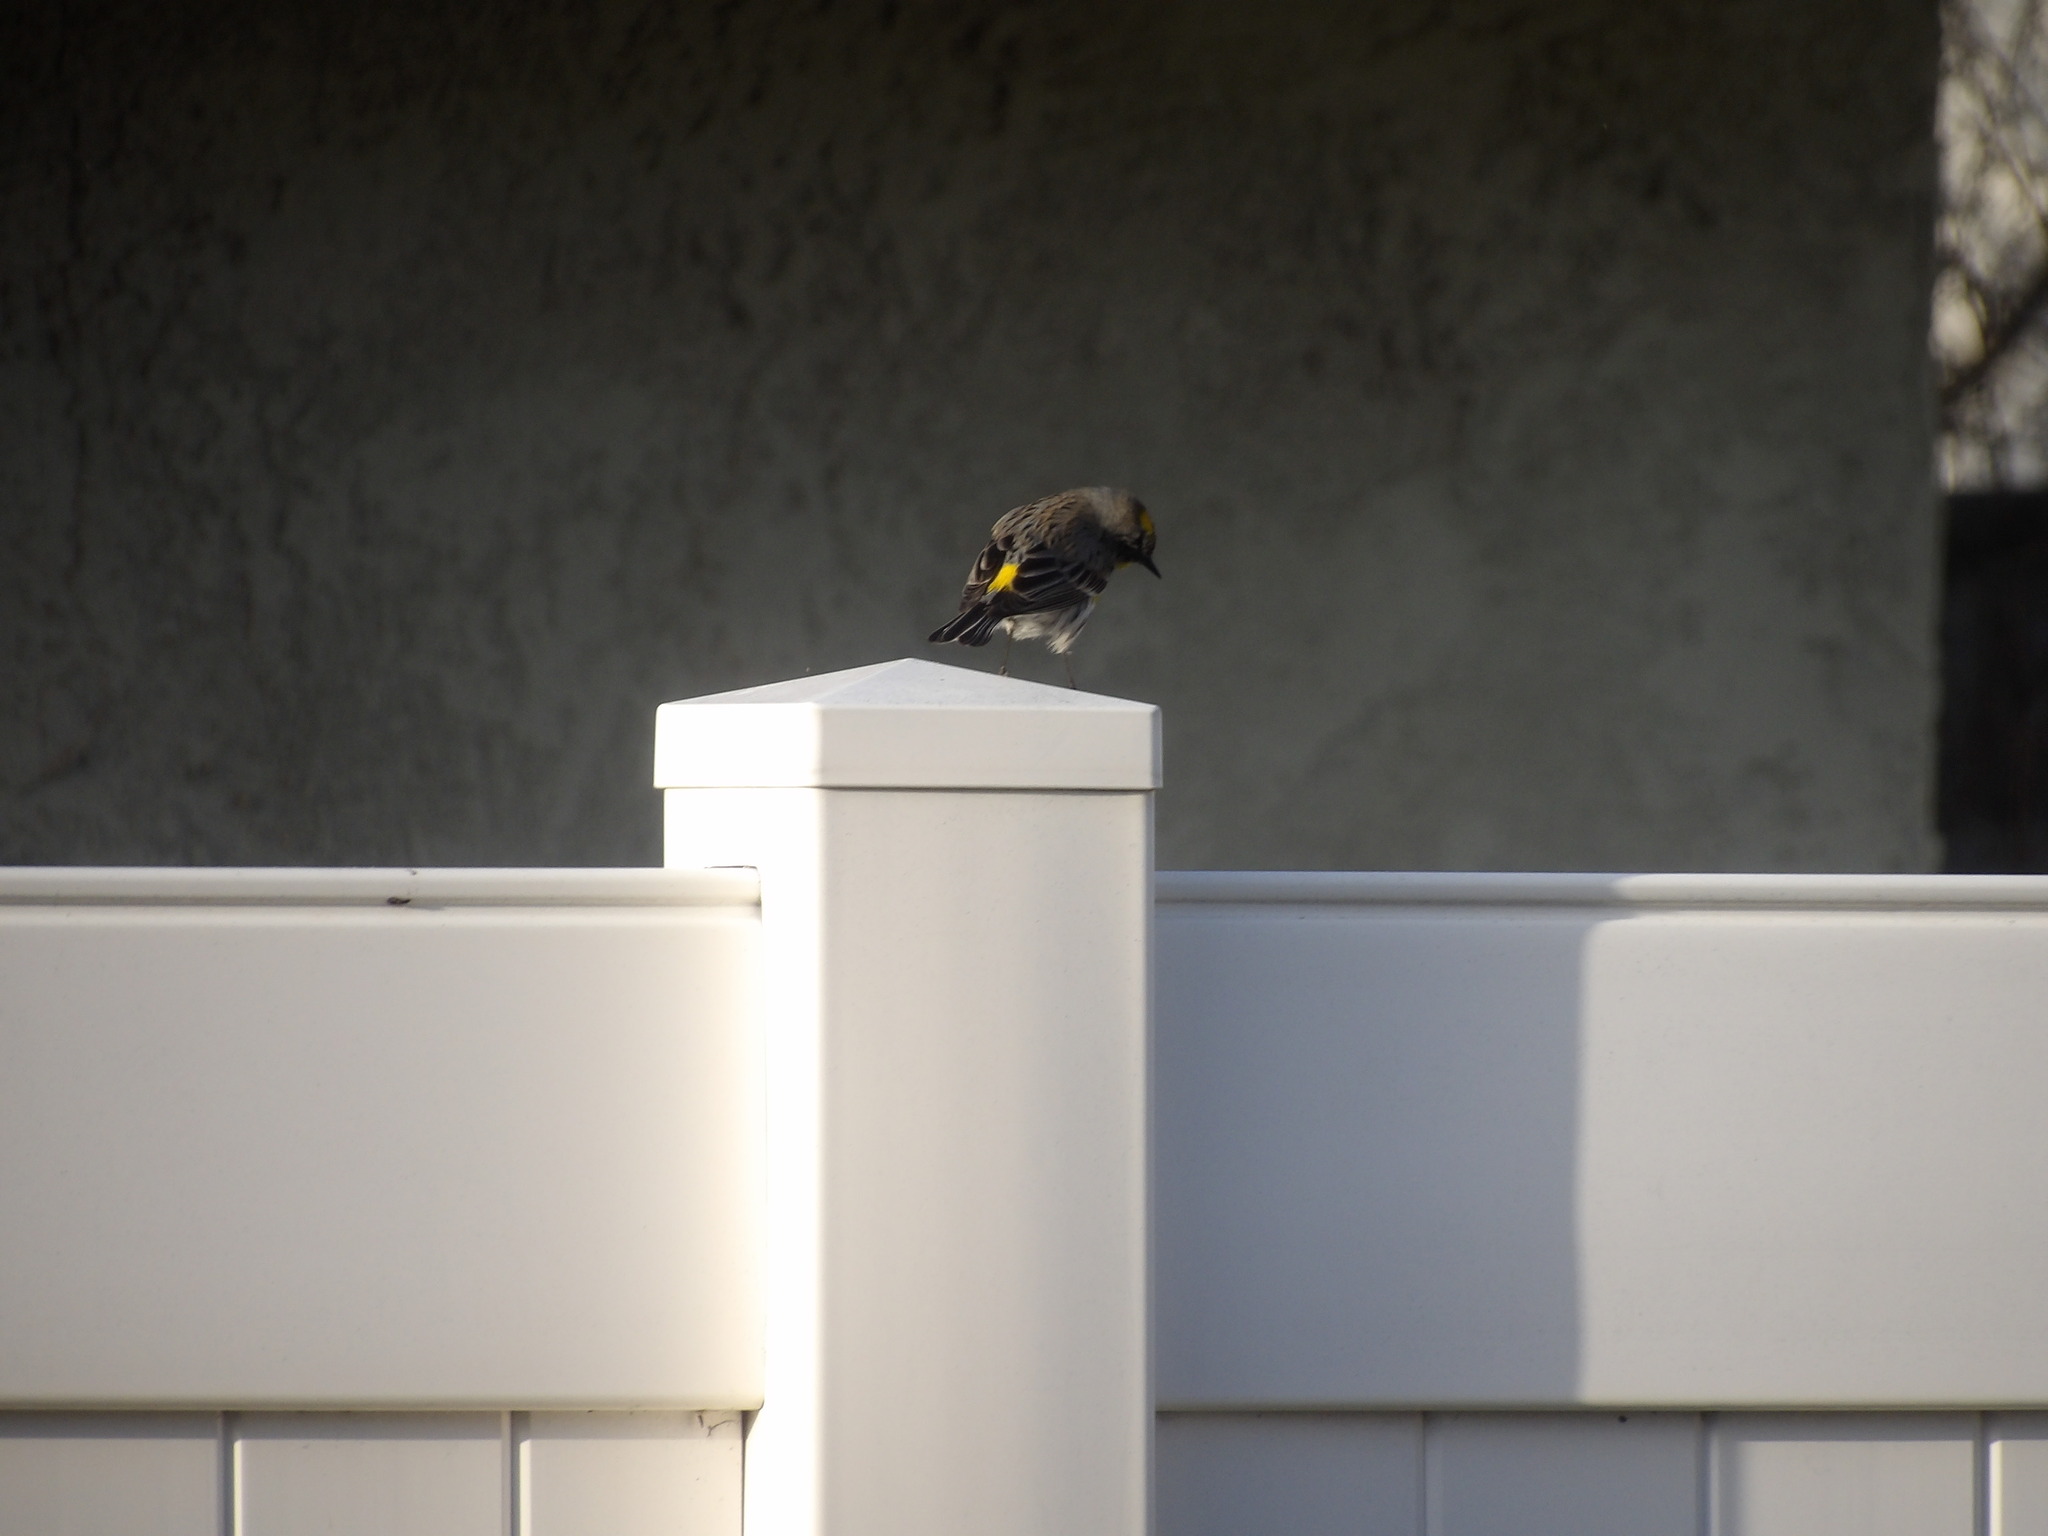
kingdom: Animalia
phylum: Chordata
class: Aves
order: Passeriformes
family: Parulidae
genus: Setophaga
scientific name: Setophaga coronata
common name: Myrtle warbler
